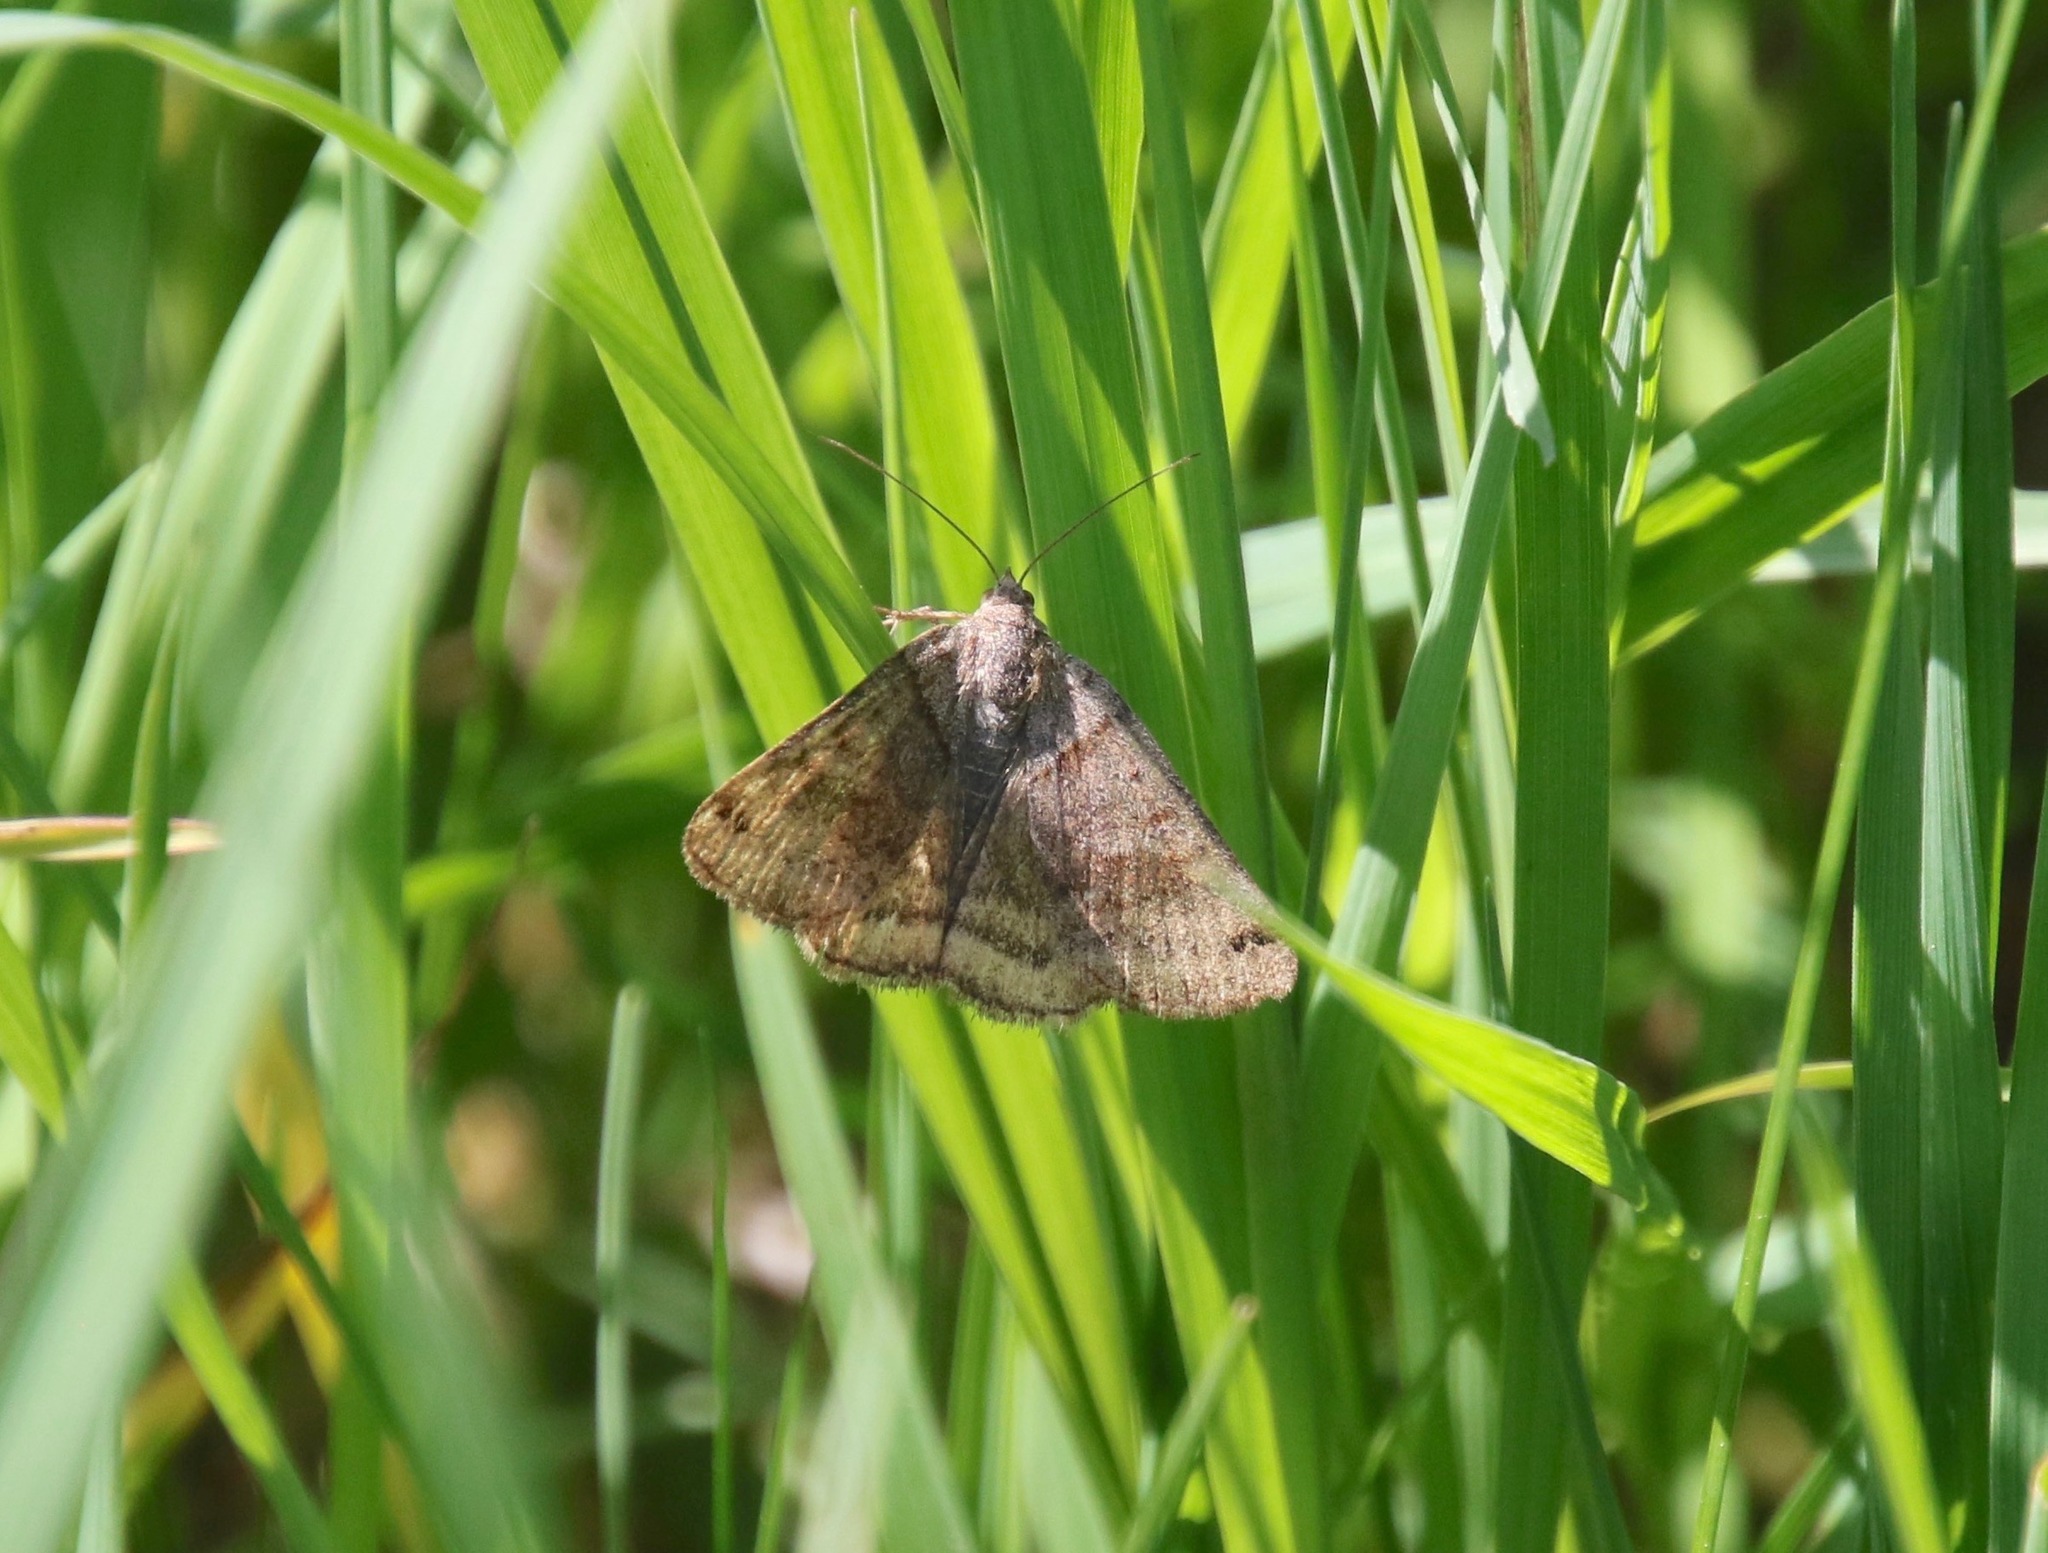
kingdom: Animalia
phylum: Arthropoda
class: Insecta
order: Lepidoptera
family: Erebidae
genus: Caenurgina
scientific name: Caenurgina crassiuscula
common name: Double-barred
